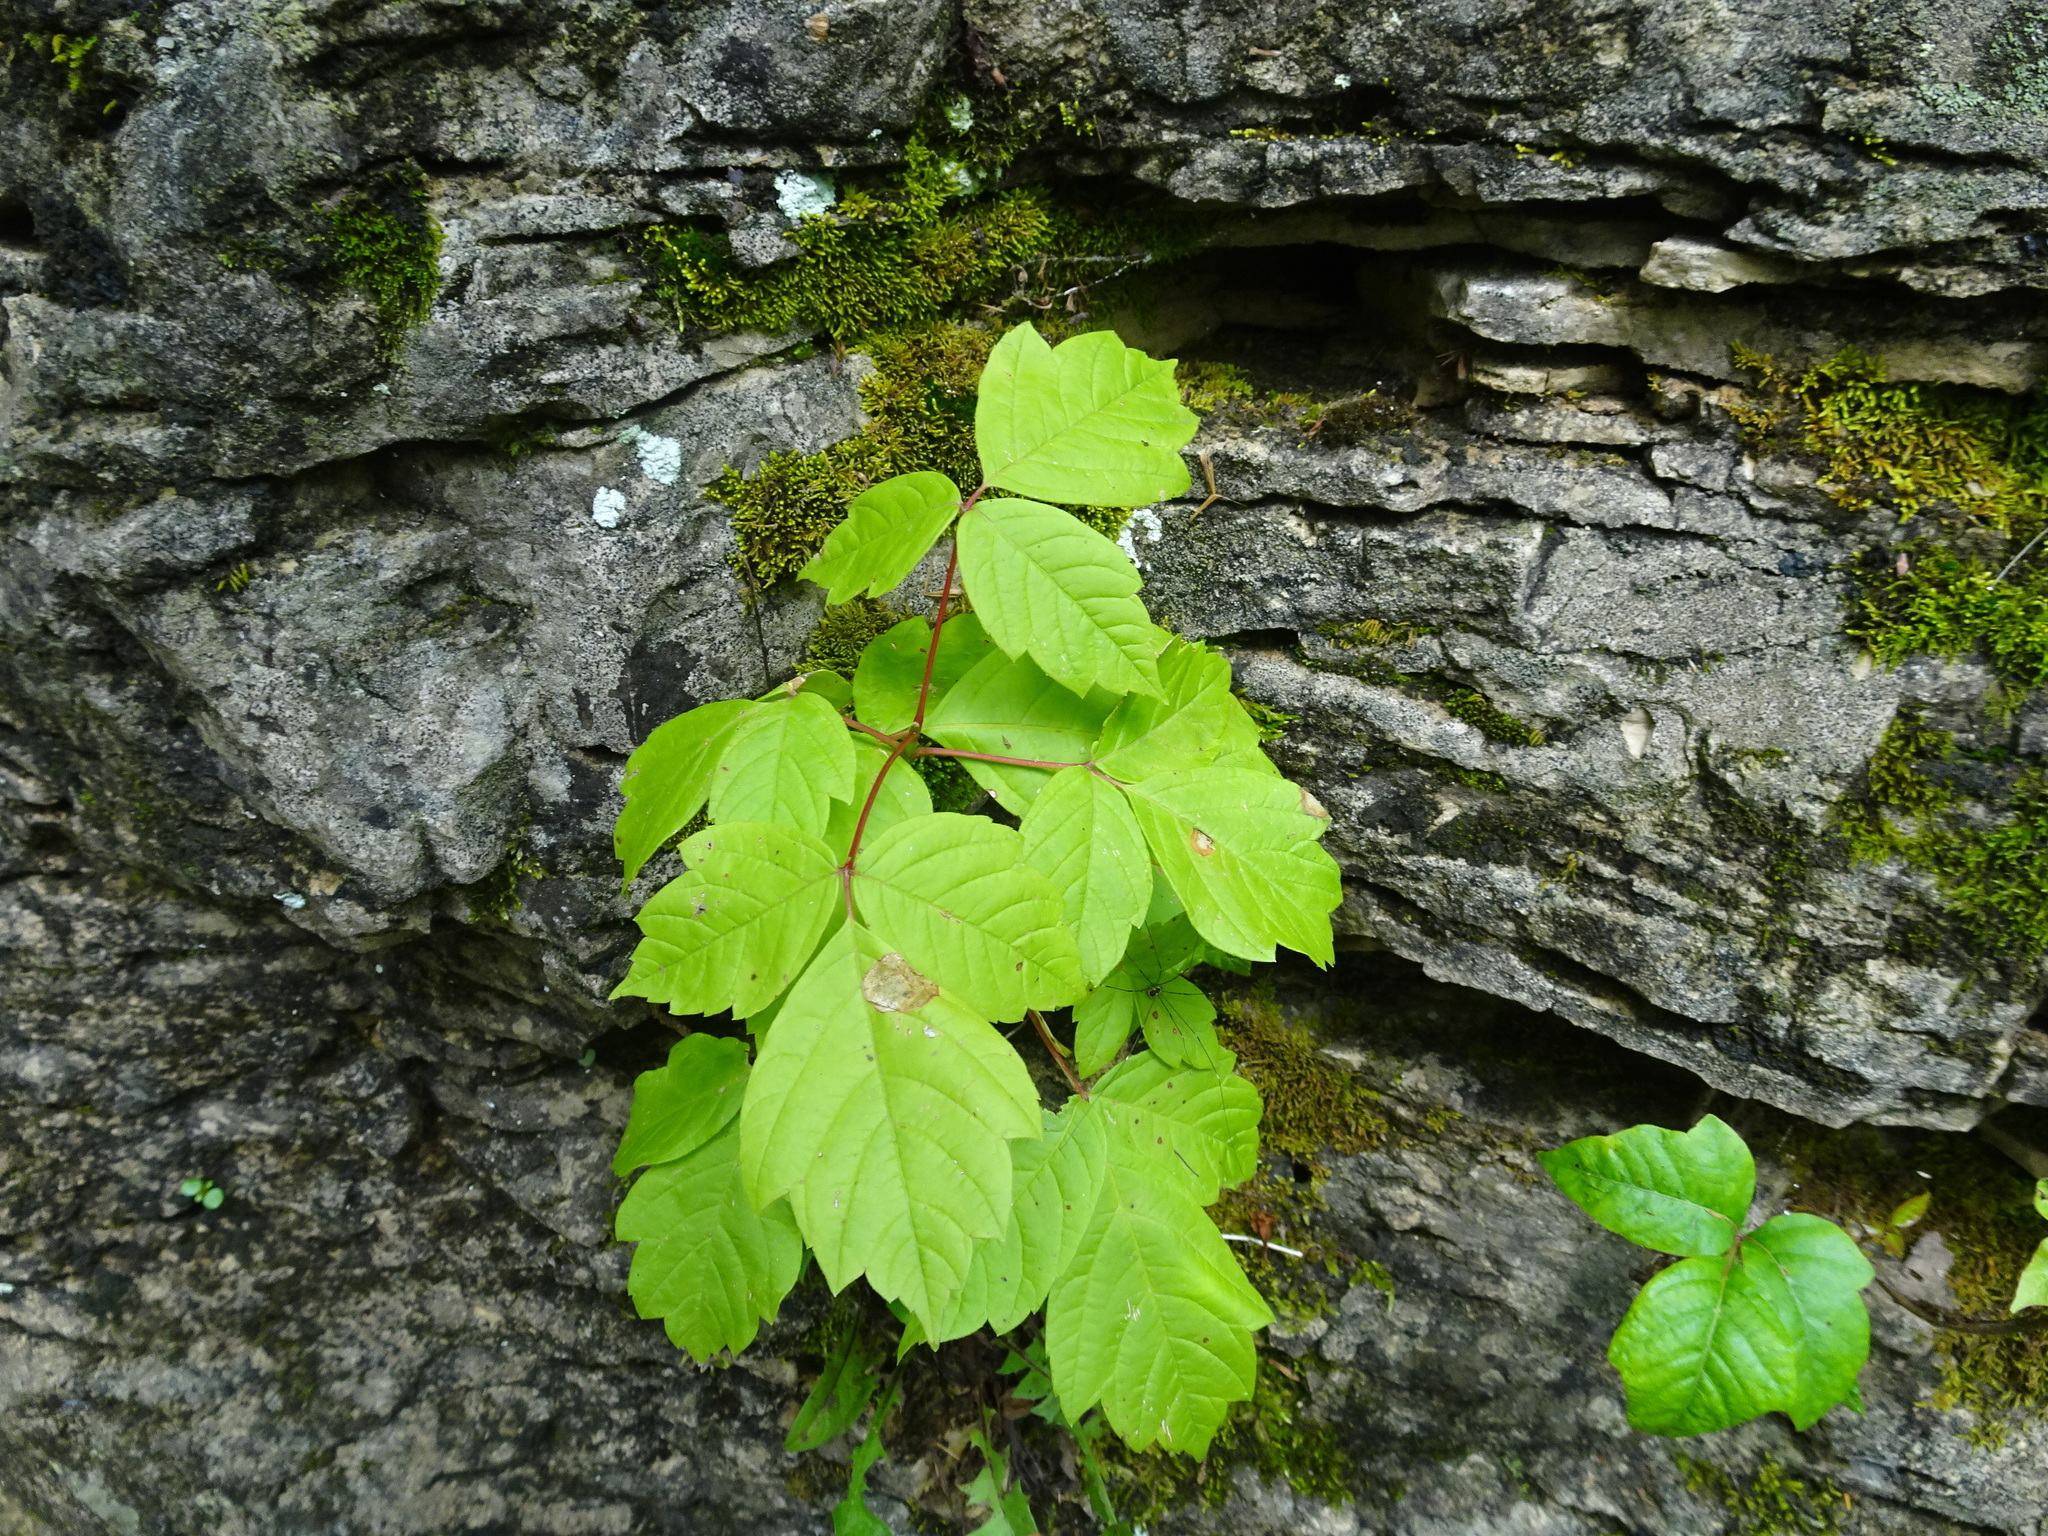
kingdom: Plantae
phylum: Tracheophyta
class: Magnoliopsida
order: Sapindales
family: Sapindaceae
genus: Acer
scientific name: Acer negundo
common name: Ashleaf maple
